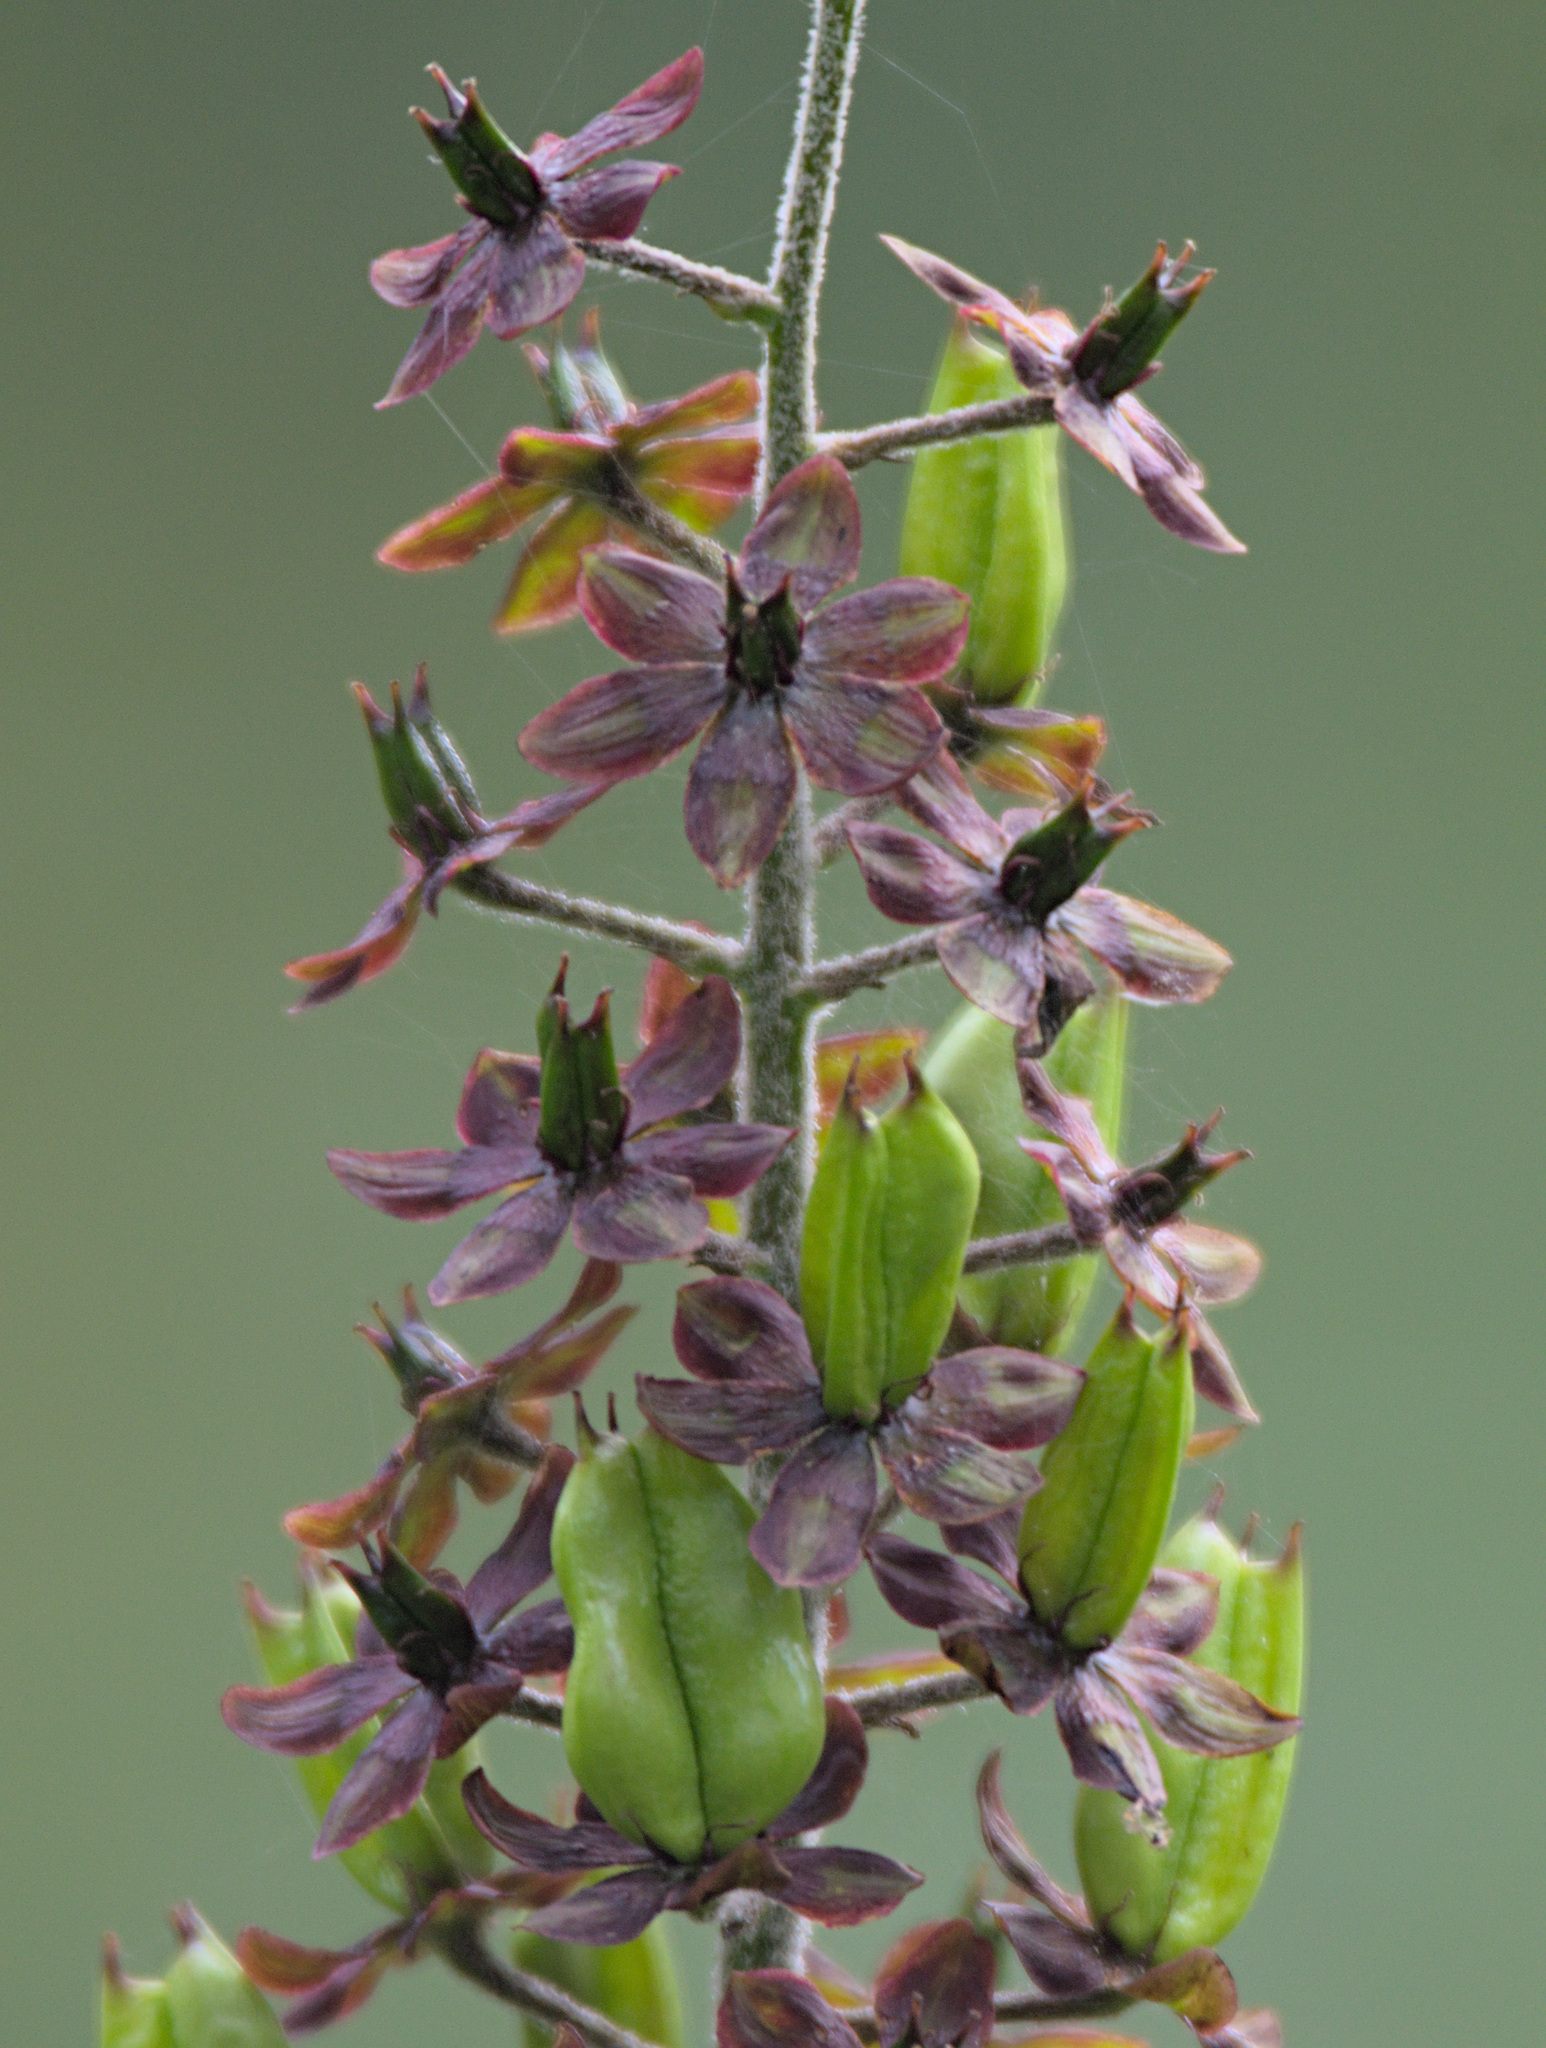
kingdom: Plantae
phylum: Tracheophyta
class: Liliopsida
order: Liliales
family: Melanthiaceae
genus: Veratrum
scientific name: Veratrum nigrum
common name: Black veratrum
